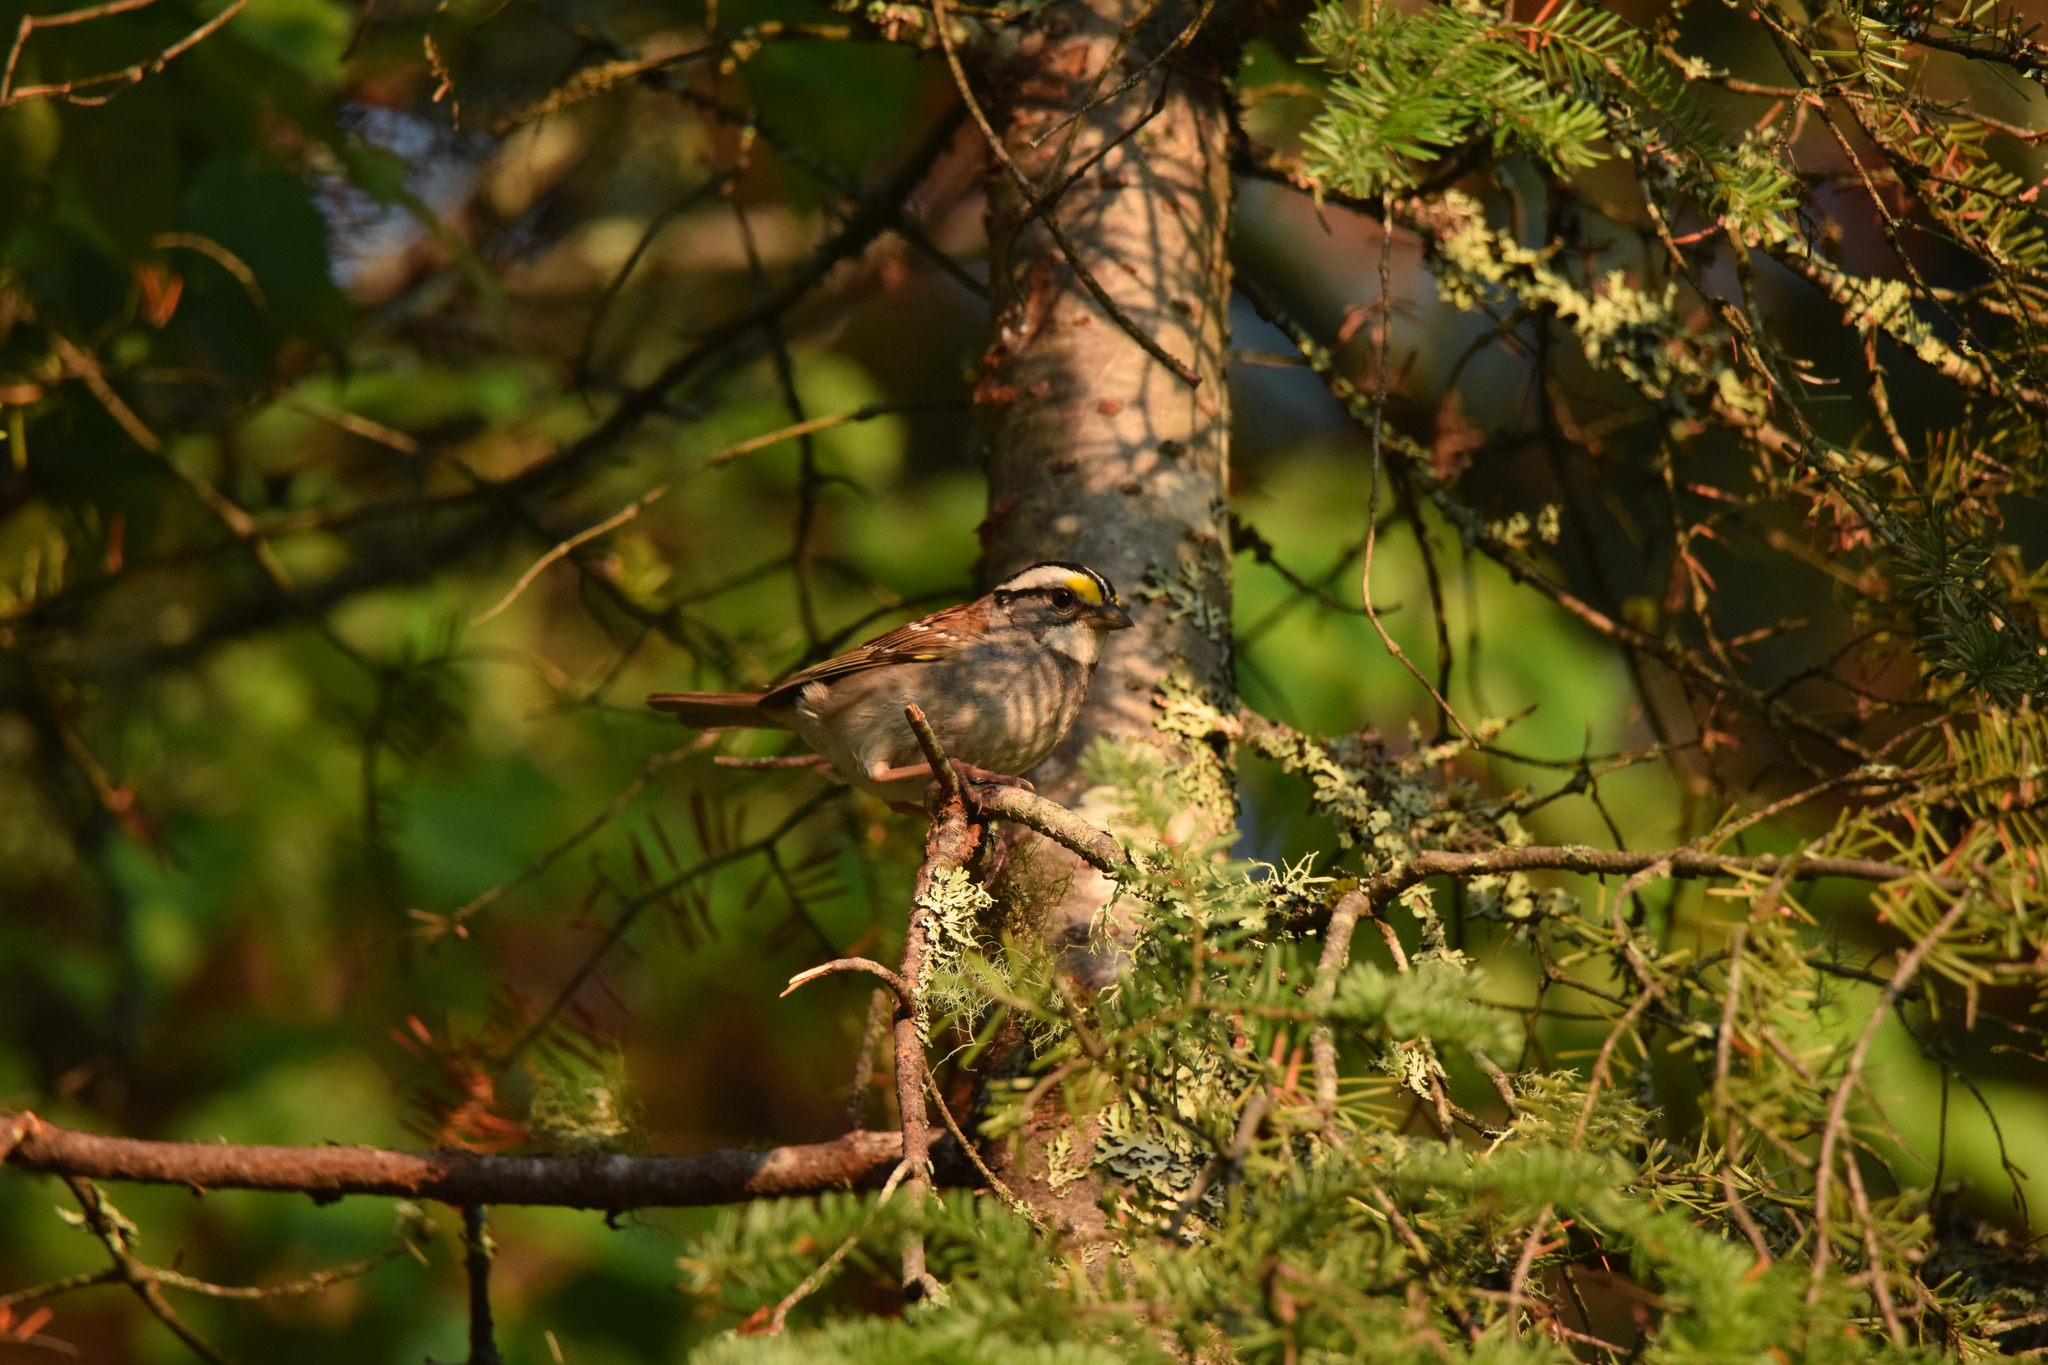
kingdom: Animalia
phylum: Chordata
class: Aves
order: Passeriformes
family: Passerellidae
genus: Zonotrichia
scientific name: Zonotrichia albicollis
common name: White-throated sparrow
